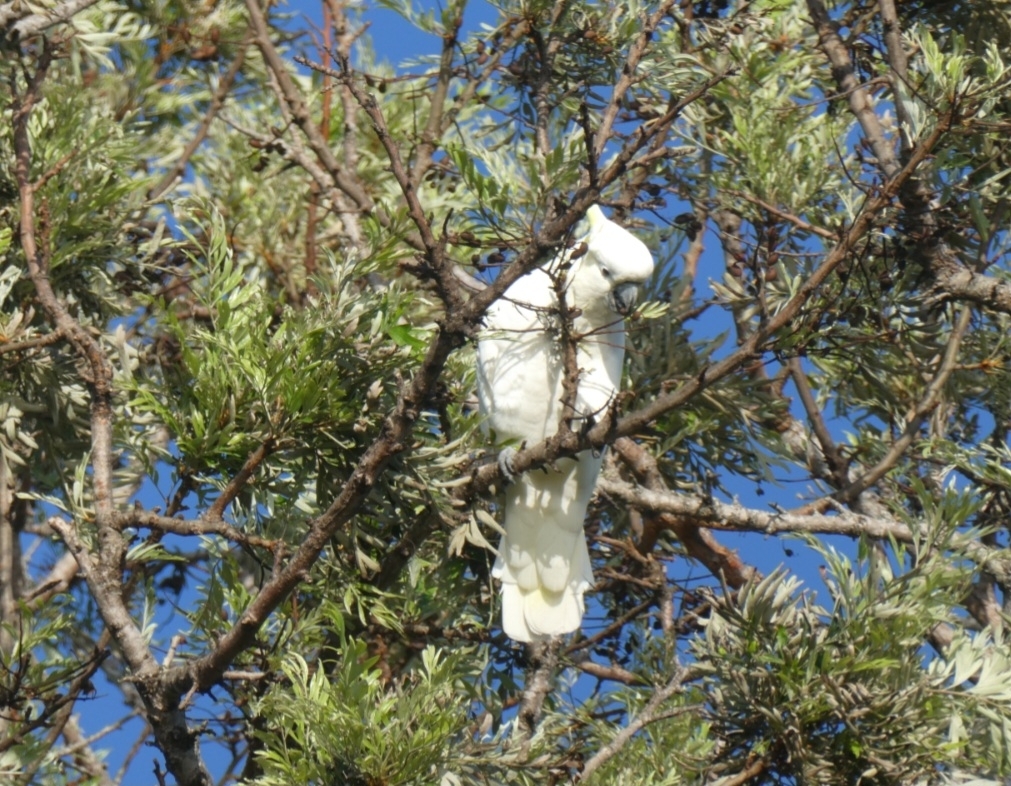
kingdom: Animalia
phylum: Chordata
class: Aves
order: Psittaciformes
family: Psittacidae
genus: Cacatua
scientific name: Cacatua galerita
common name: Sulphur-crested cockatoo
